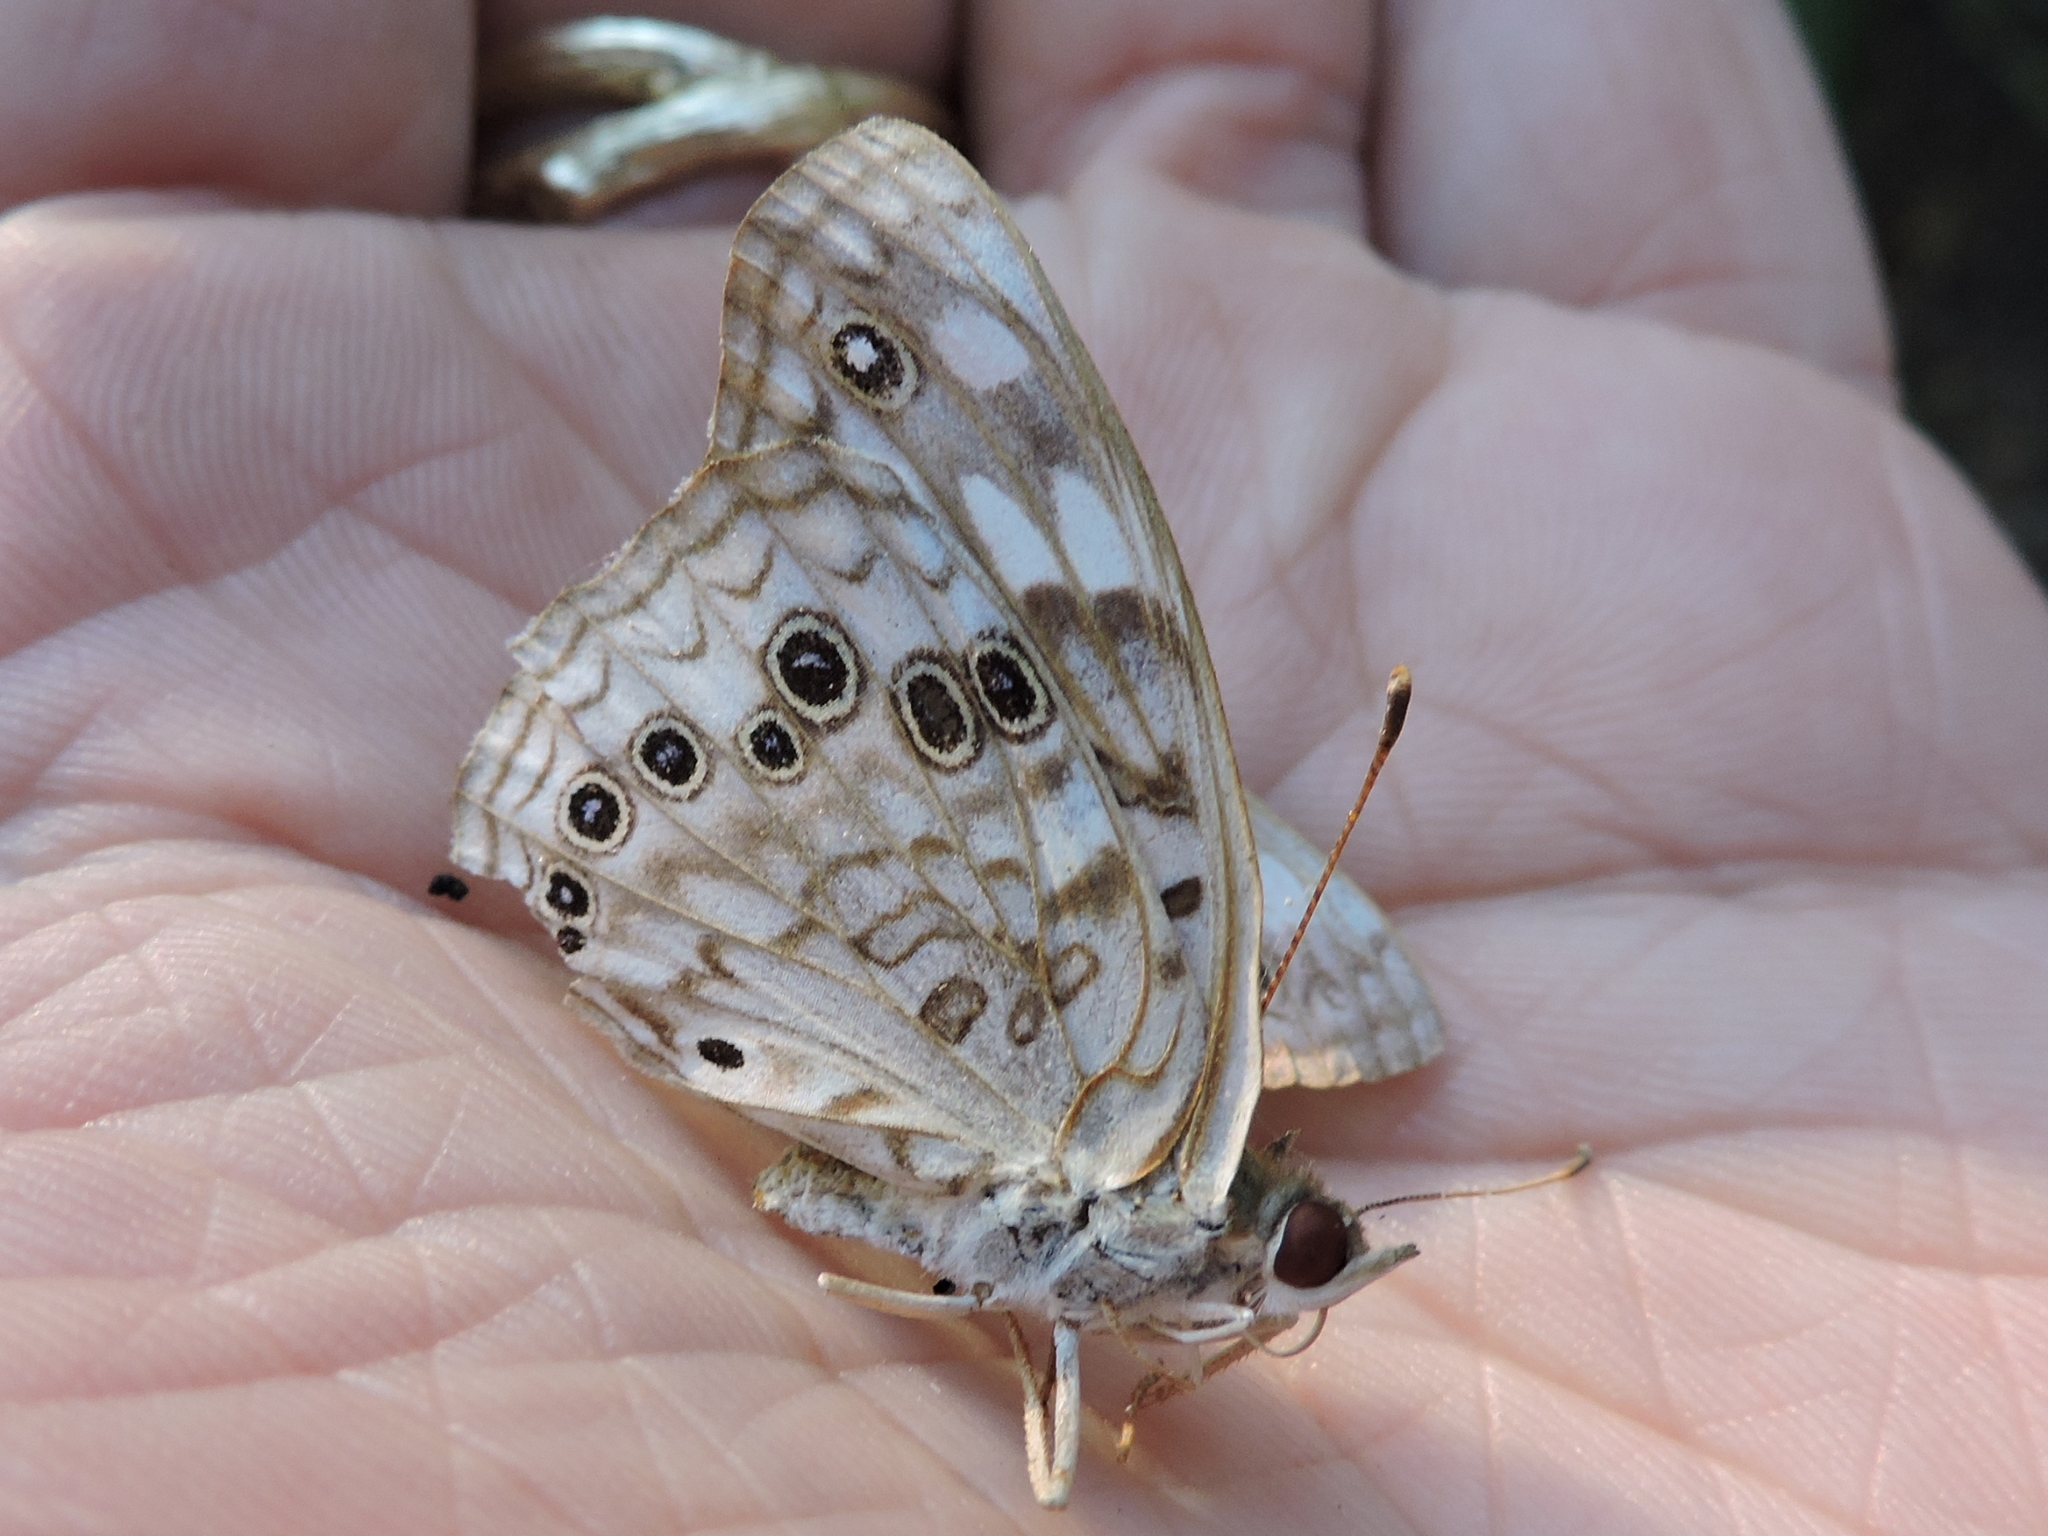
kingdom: Animalia
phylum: Arthropoda
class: Insecta
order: Lepidoptera
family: Nymphalidae
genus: Asterocampa
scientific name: Asterocampa celtis
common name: Hackberry emperor
